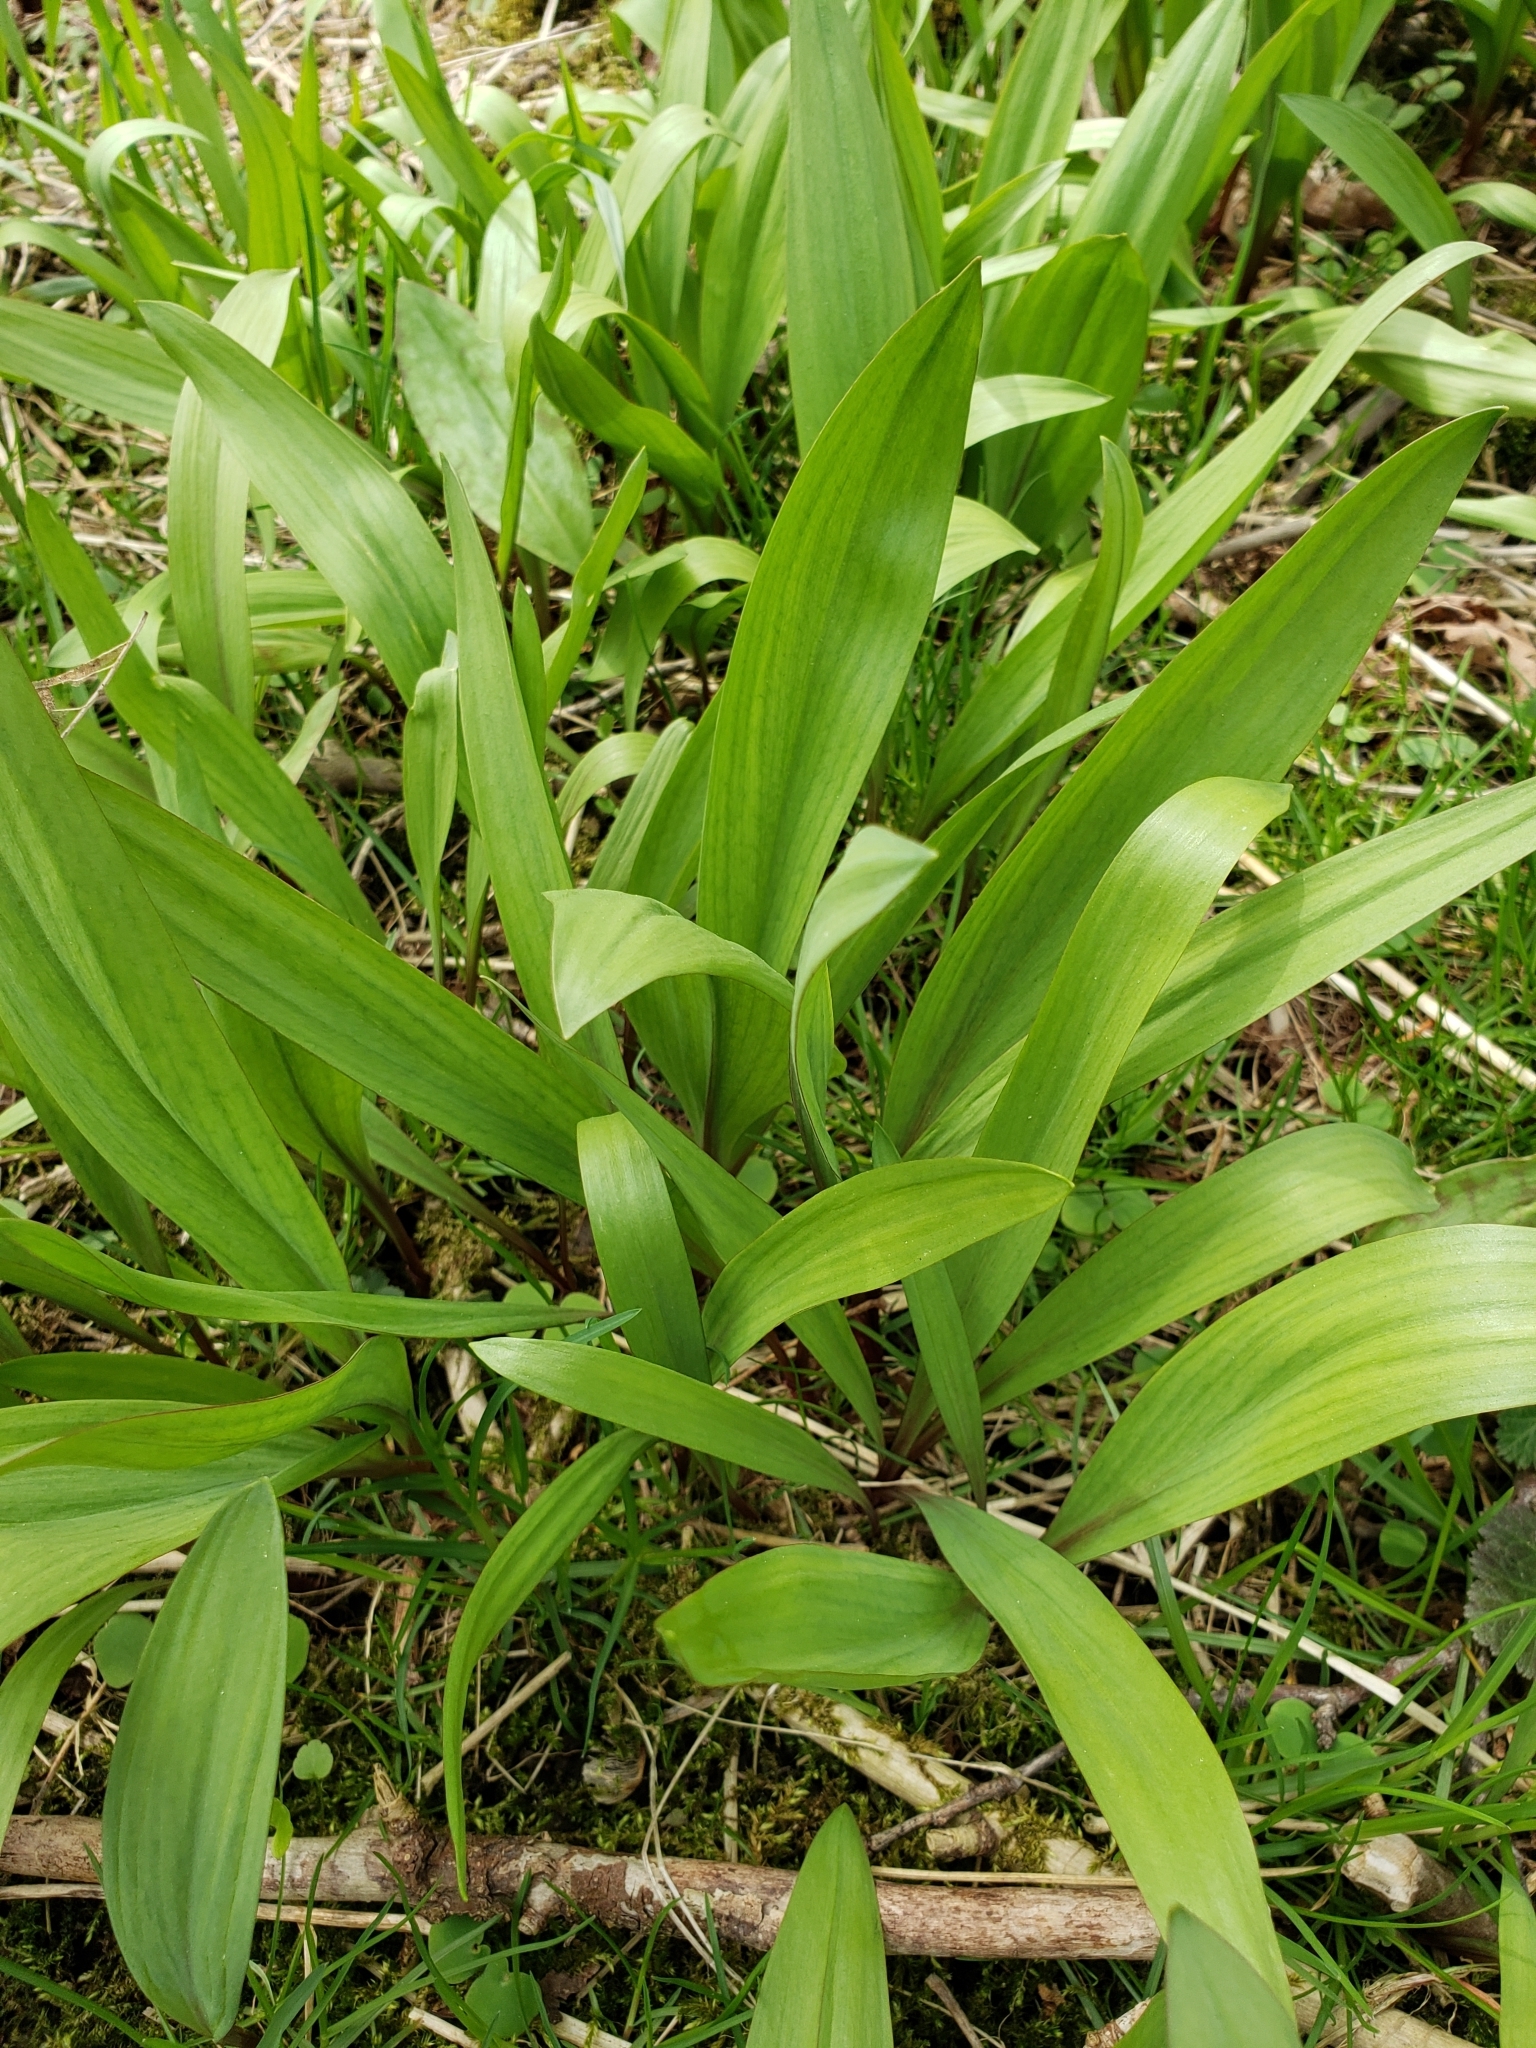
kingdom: Plantae
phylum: Tracheophyta
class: Liliopsida
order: Asparagales
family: Amaryllidaceae
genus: Allium
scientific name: Allium tricoccum
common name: Ramp
